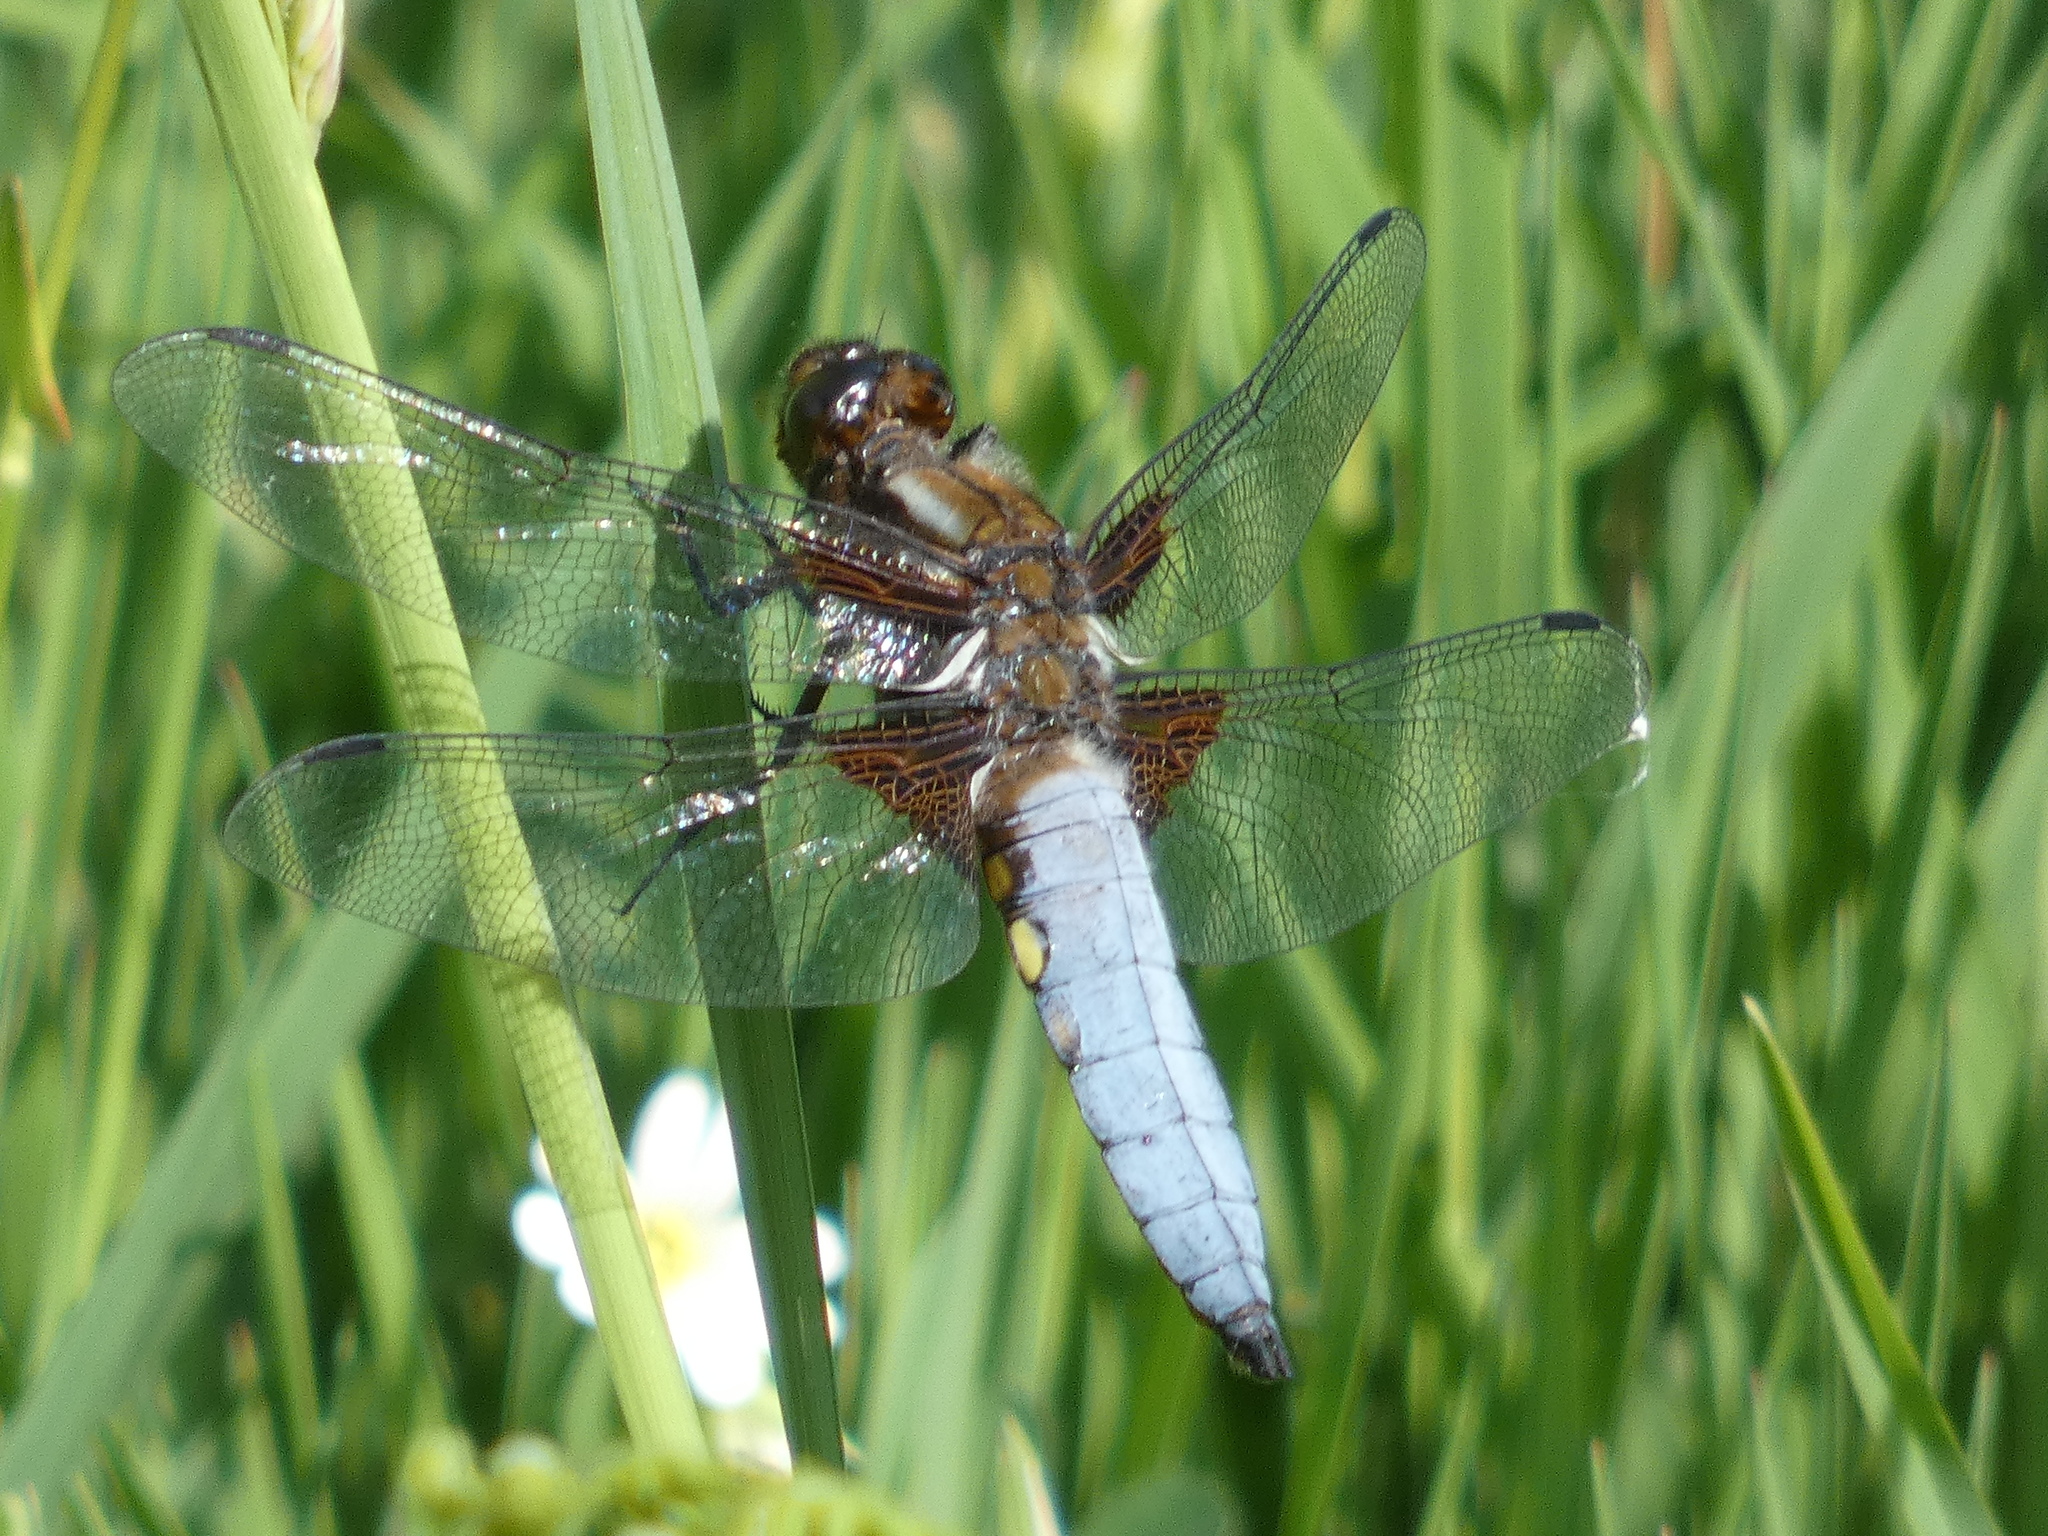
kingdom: Animalia
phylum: Arthropoda
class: Insecta
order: Odonata
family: Libellulidae
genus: Libellula
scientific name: Libellula depressa
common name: Broad-bodied chaser
